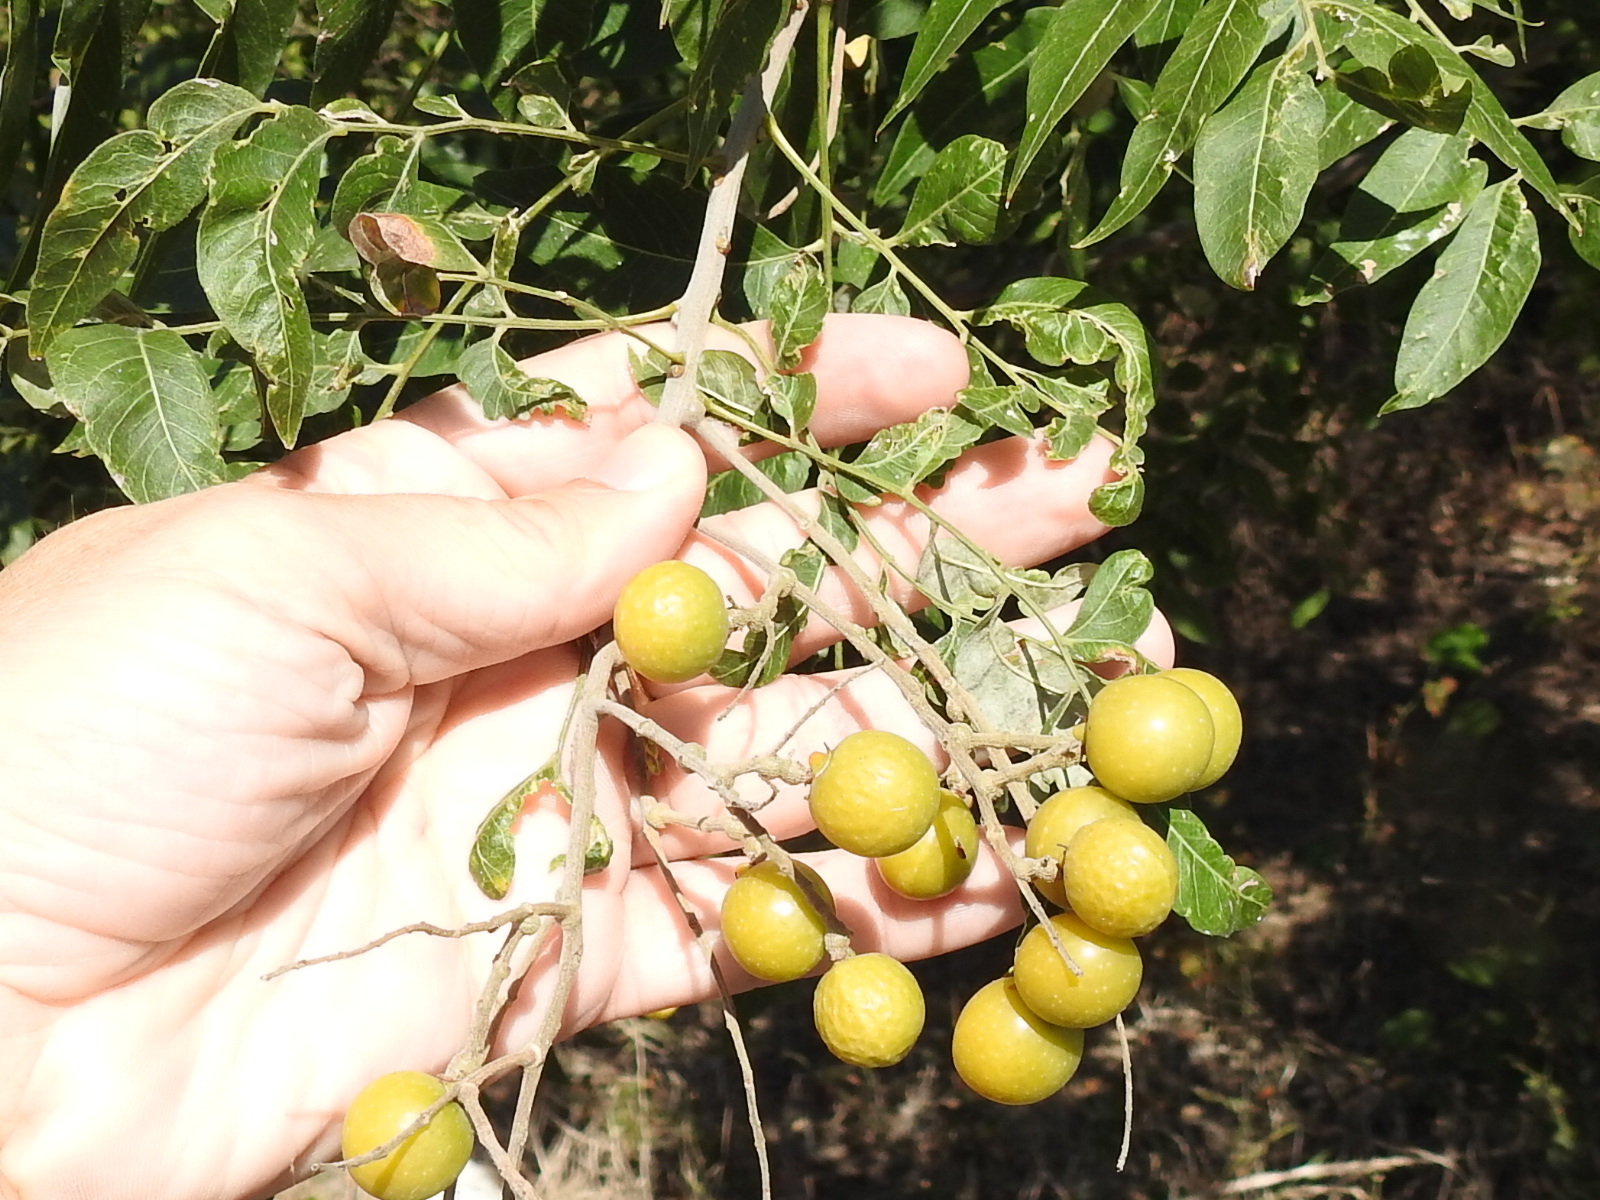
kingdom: Plantae
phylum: Tracheophyta
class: Magnoliopsida
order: Sapindales
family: Sapindaceae
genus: Sapindus
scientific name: Sapindus drummondii
